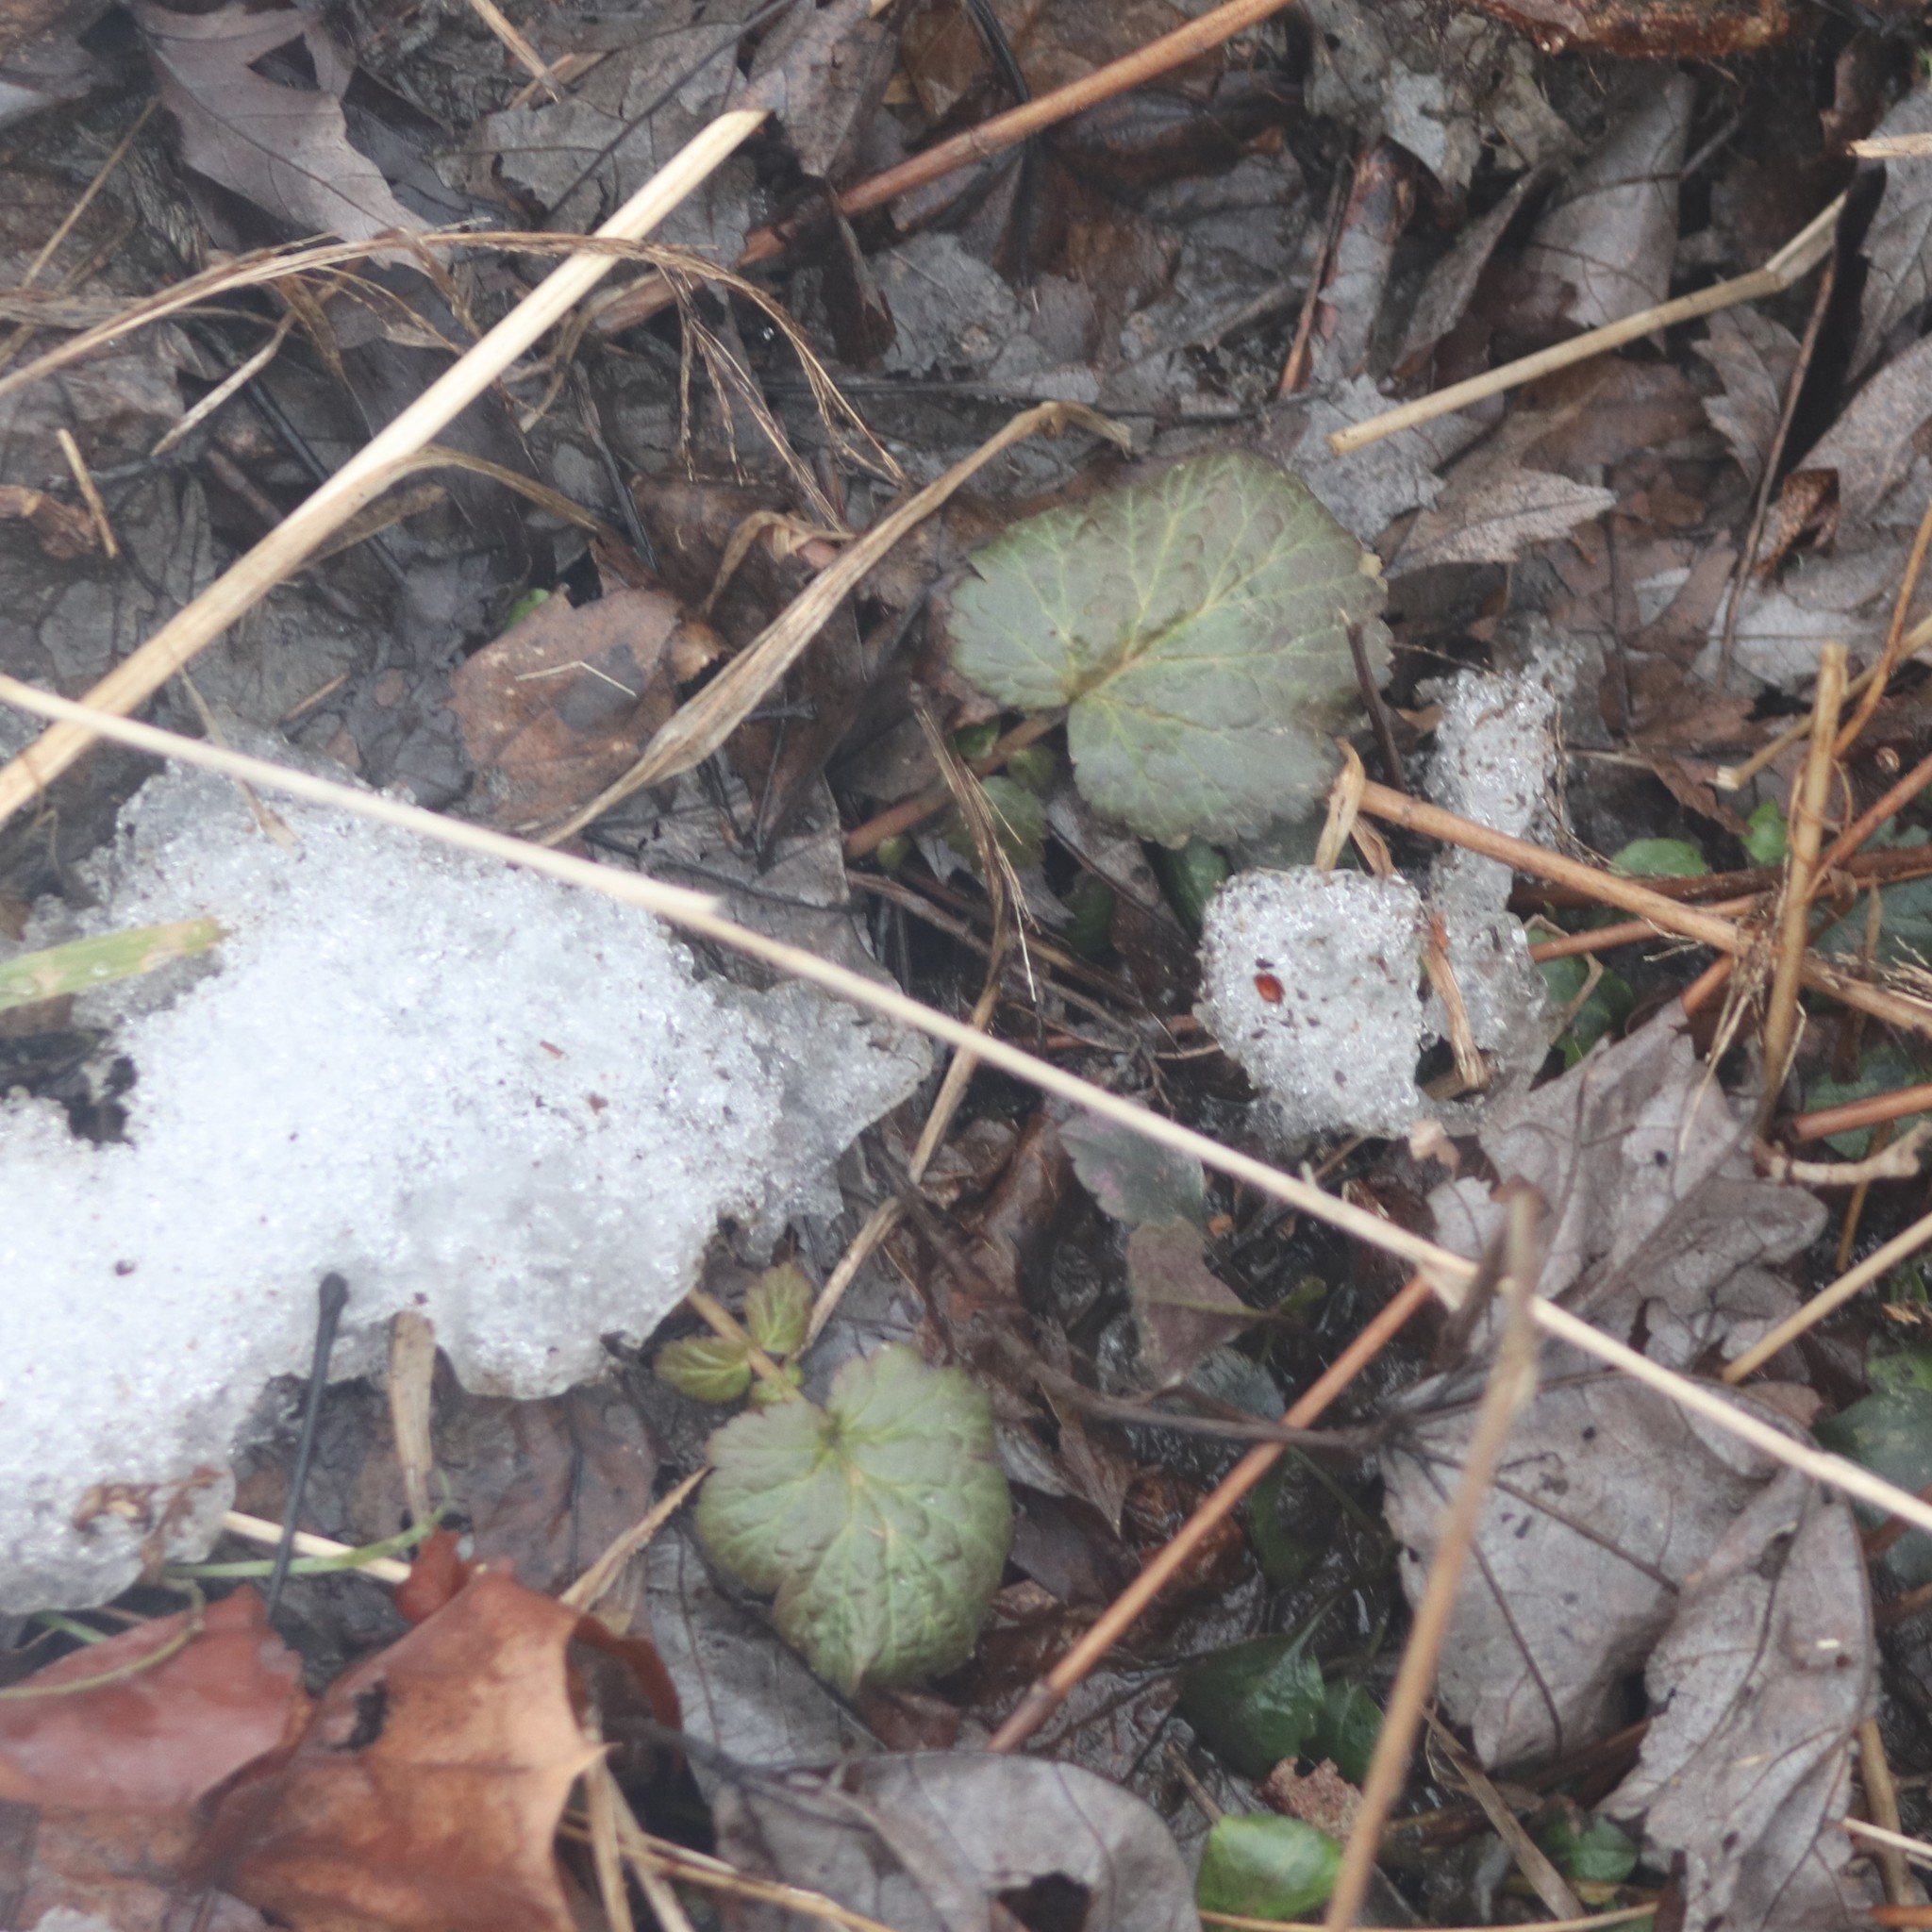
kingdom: Plantae
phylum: Tracheophyta
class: Magnoliopsida
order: Rosales
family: Rosaceae
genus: Geum
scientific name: Geum canadense
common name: White avens
